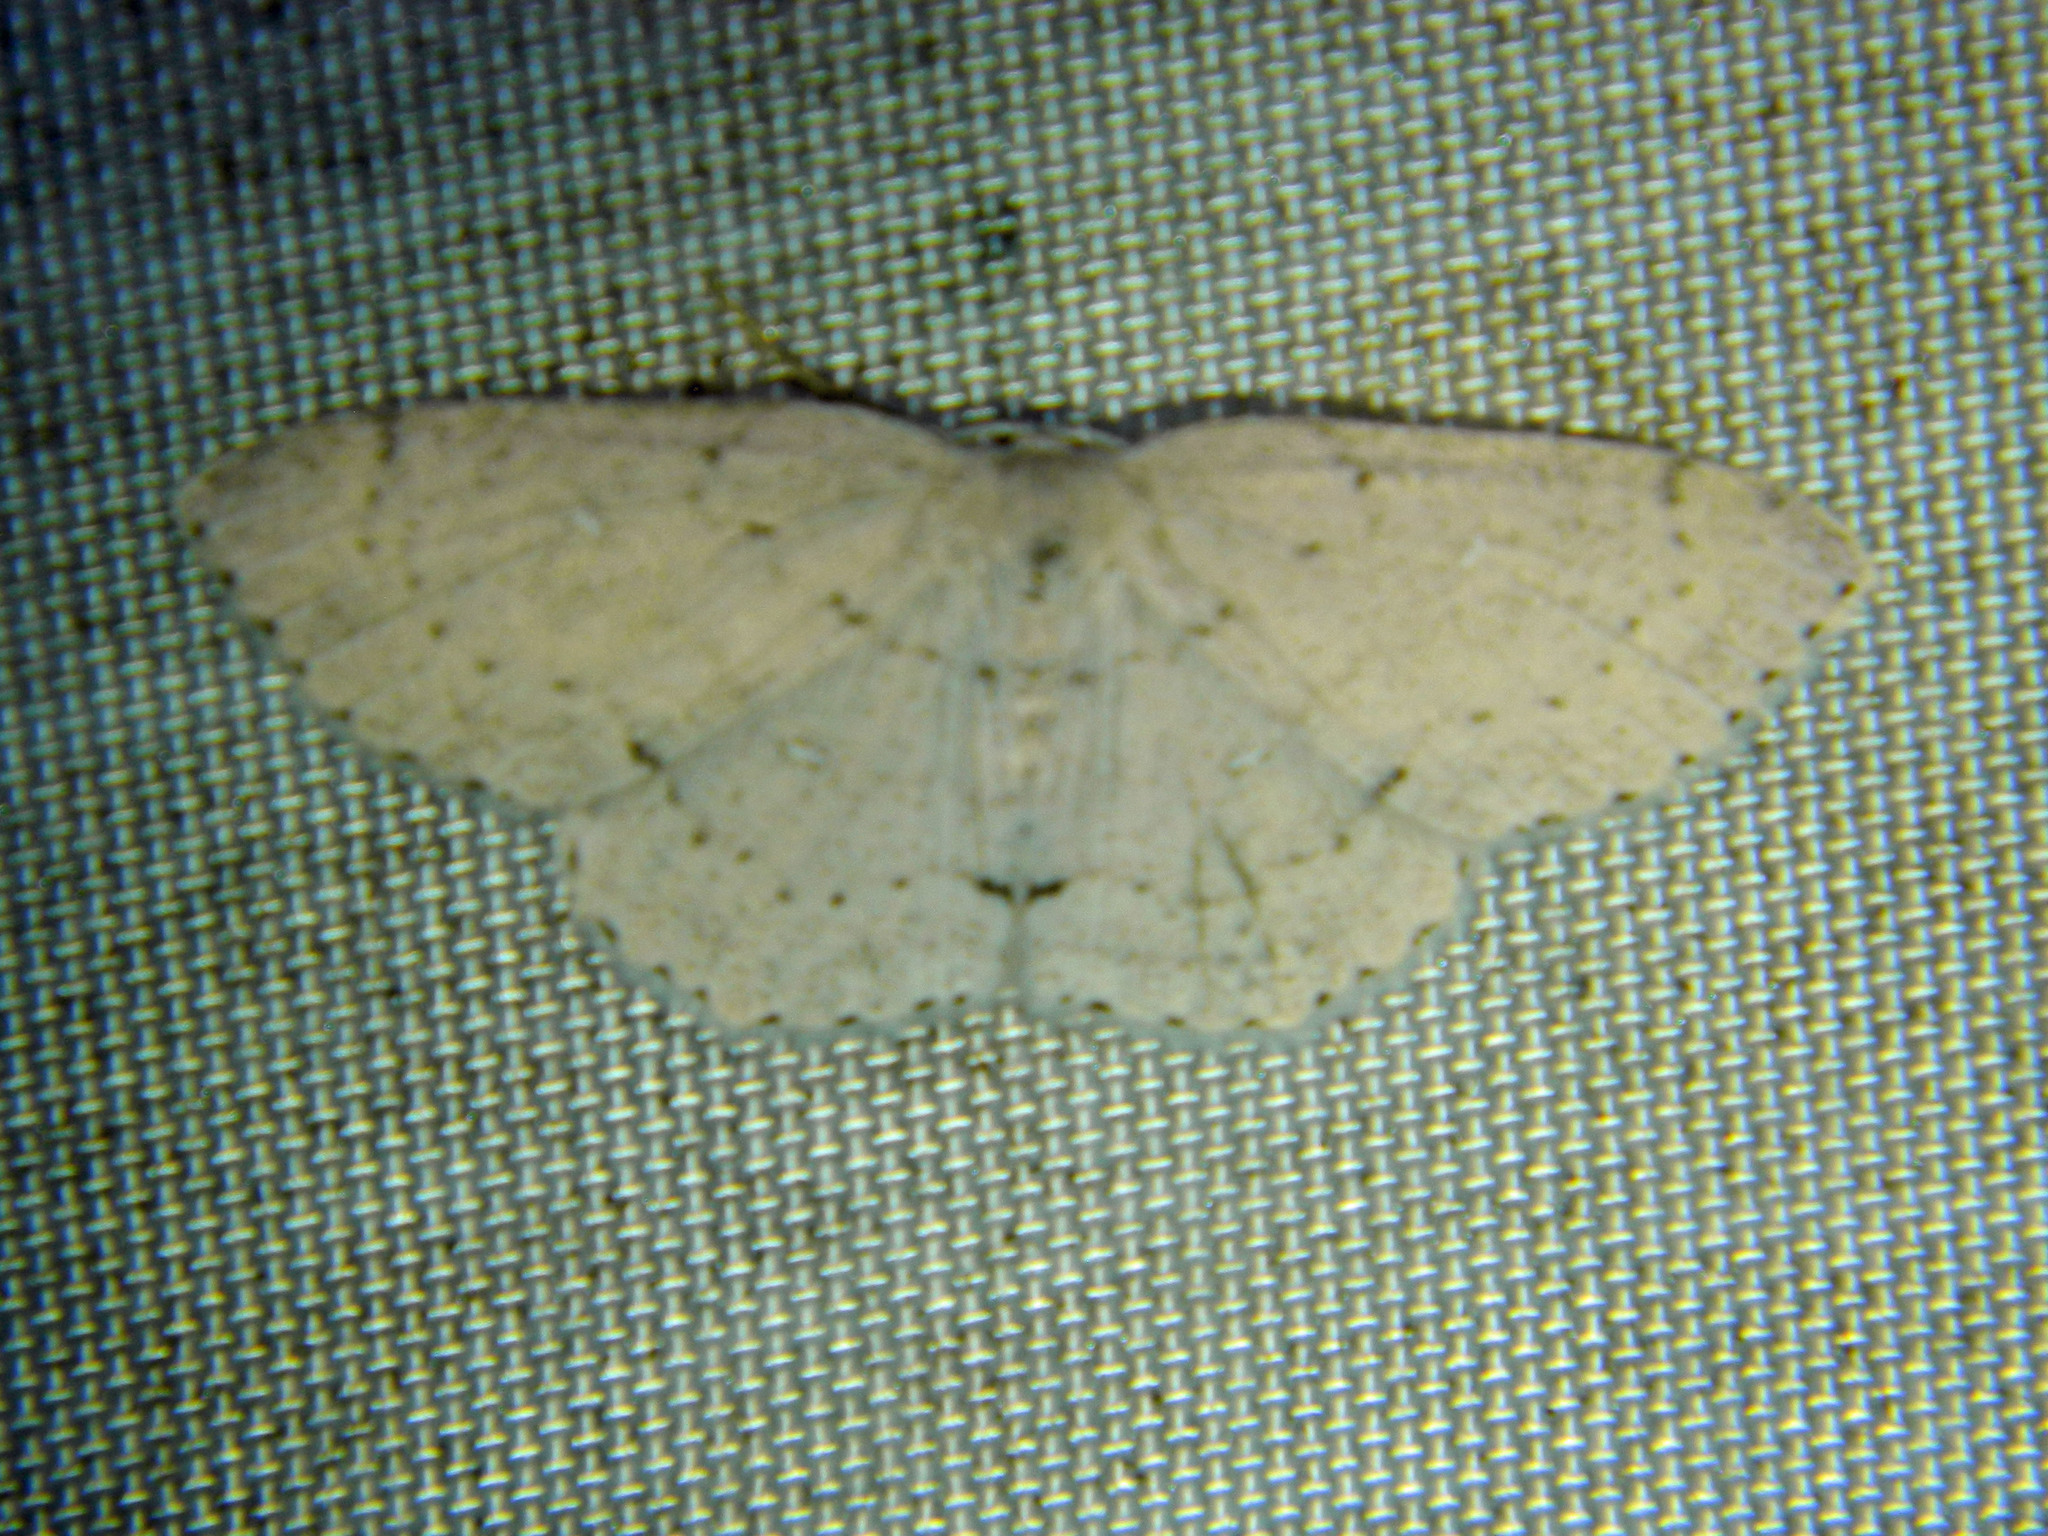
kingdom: Animalia
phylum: Arthropoda
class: Insecta
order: Lepidoptera
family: Geometridae
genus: Cyclophora
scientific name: Cyclophora pendulinaria
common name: Sweet fern geometer
